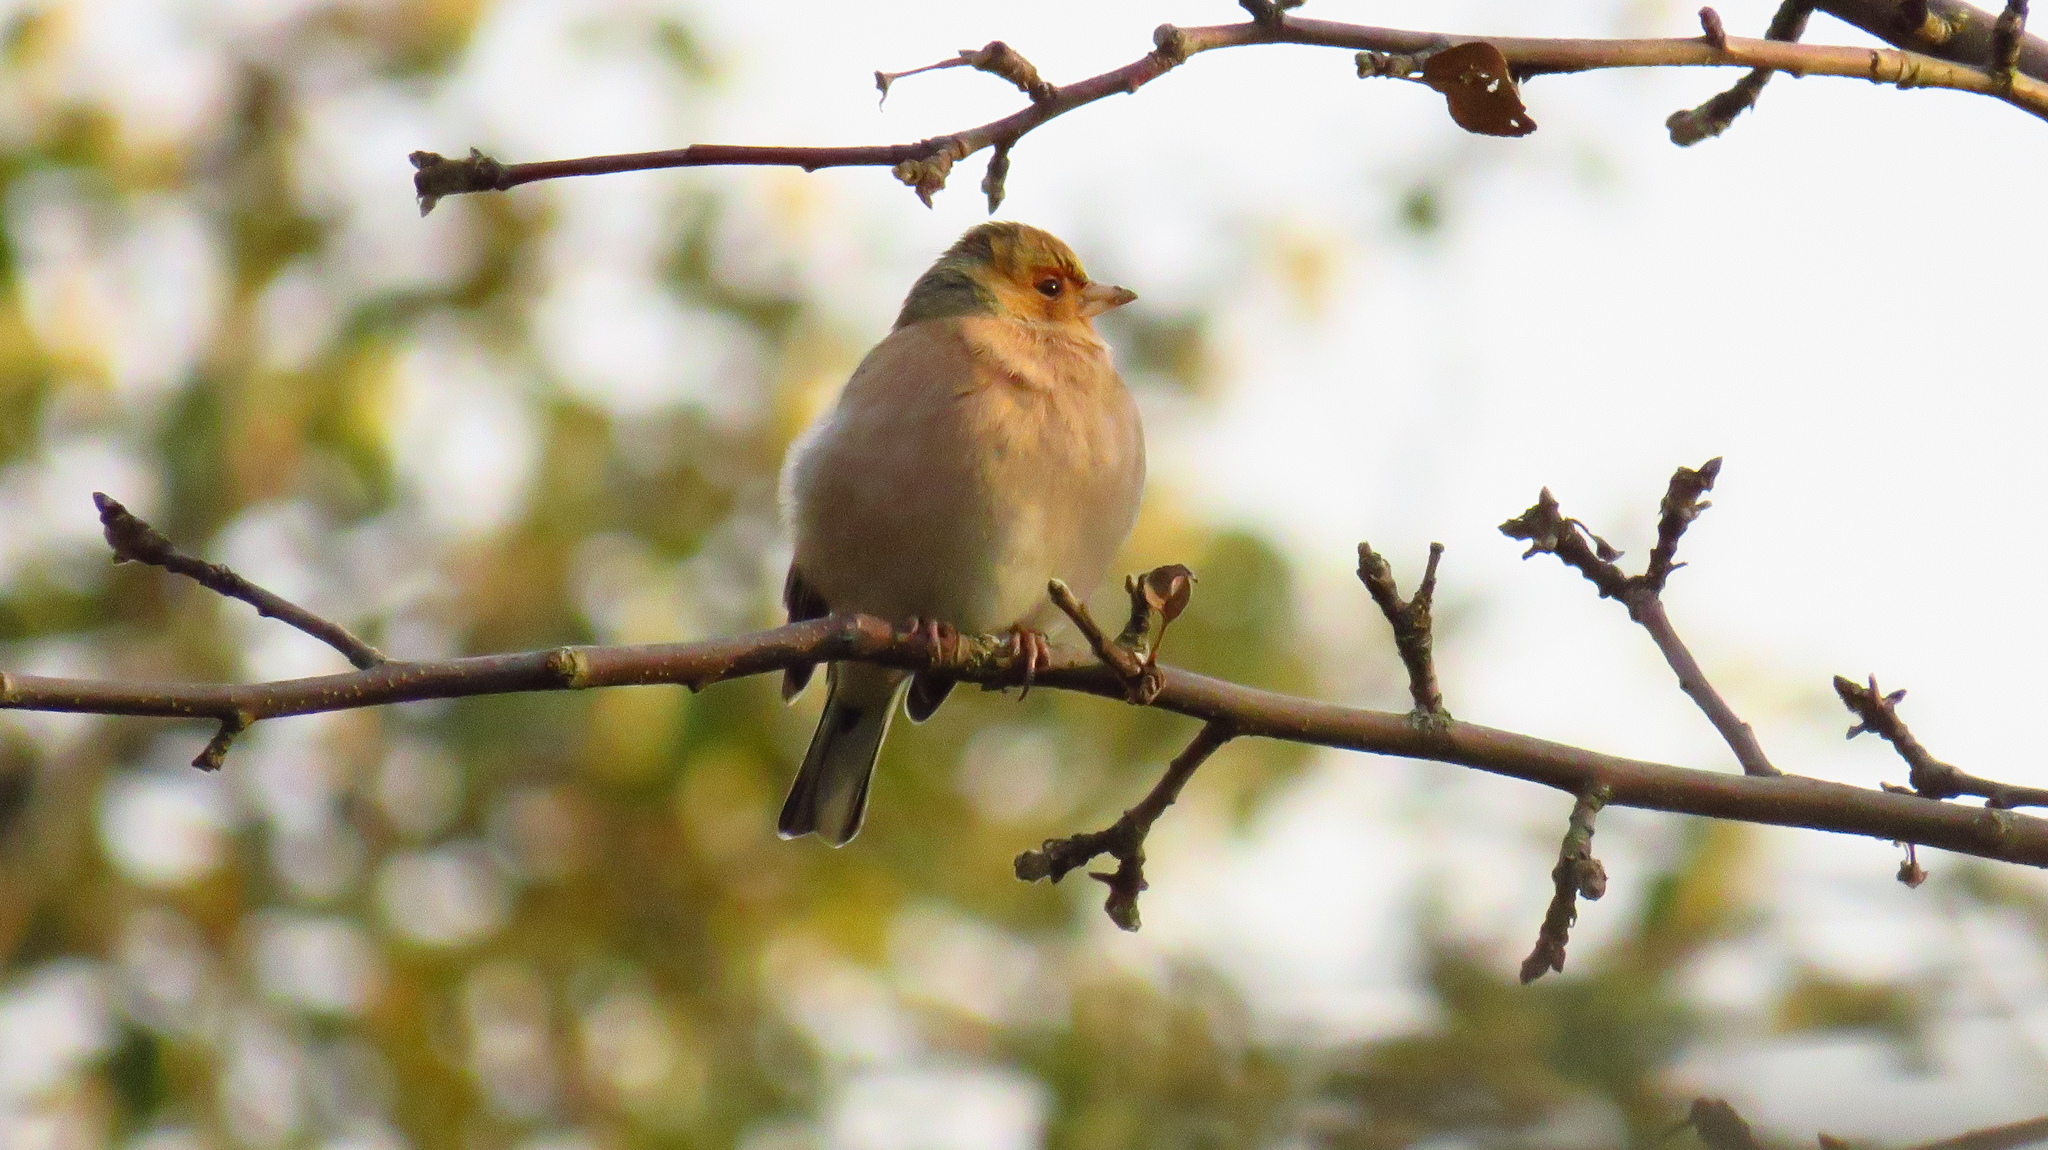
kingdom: Animalia
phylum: Chordata
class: Aves
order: Passeriformes
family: Fringillidae
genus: Fringilla
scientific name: Fringilla coelebs
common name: Common chaffinch
